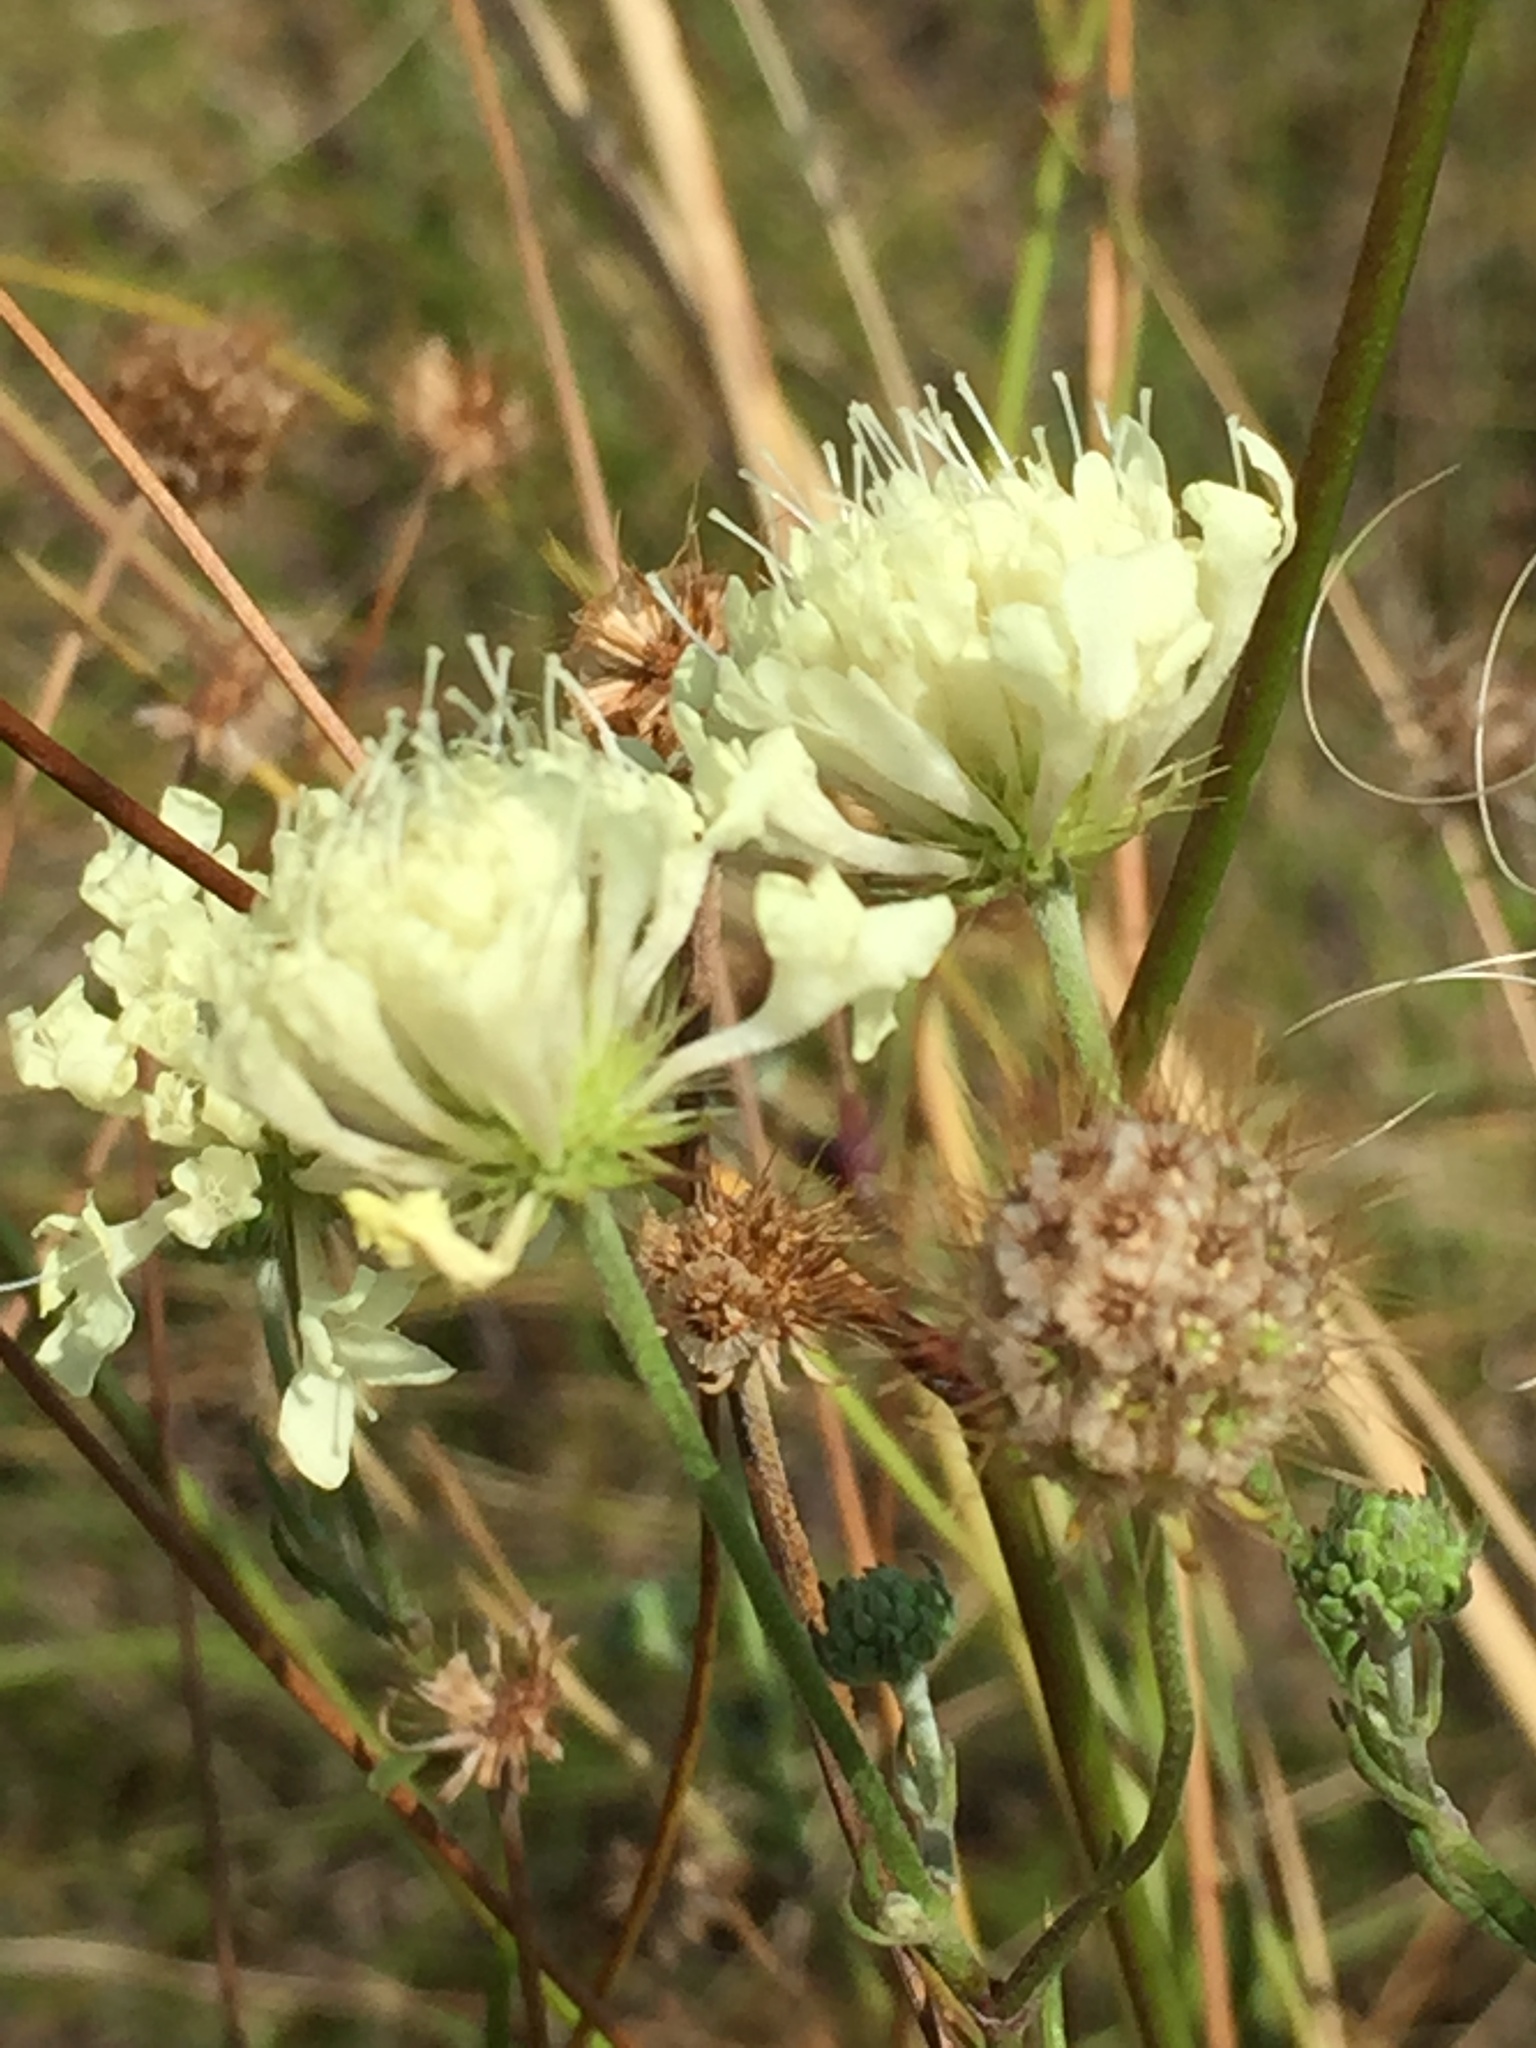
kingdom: Plantae
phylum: Tracheophyta
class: Magnoliopsida
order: Dipsacales
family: Caprifoliaceae
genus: Scabiosa
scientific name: Scabiosa ochroleuca
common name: Cream pincushions
